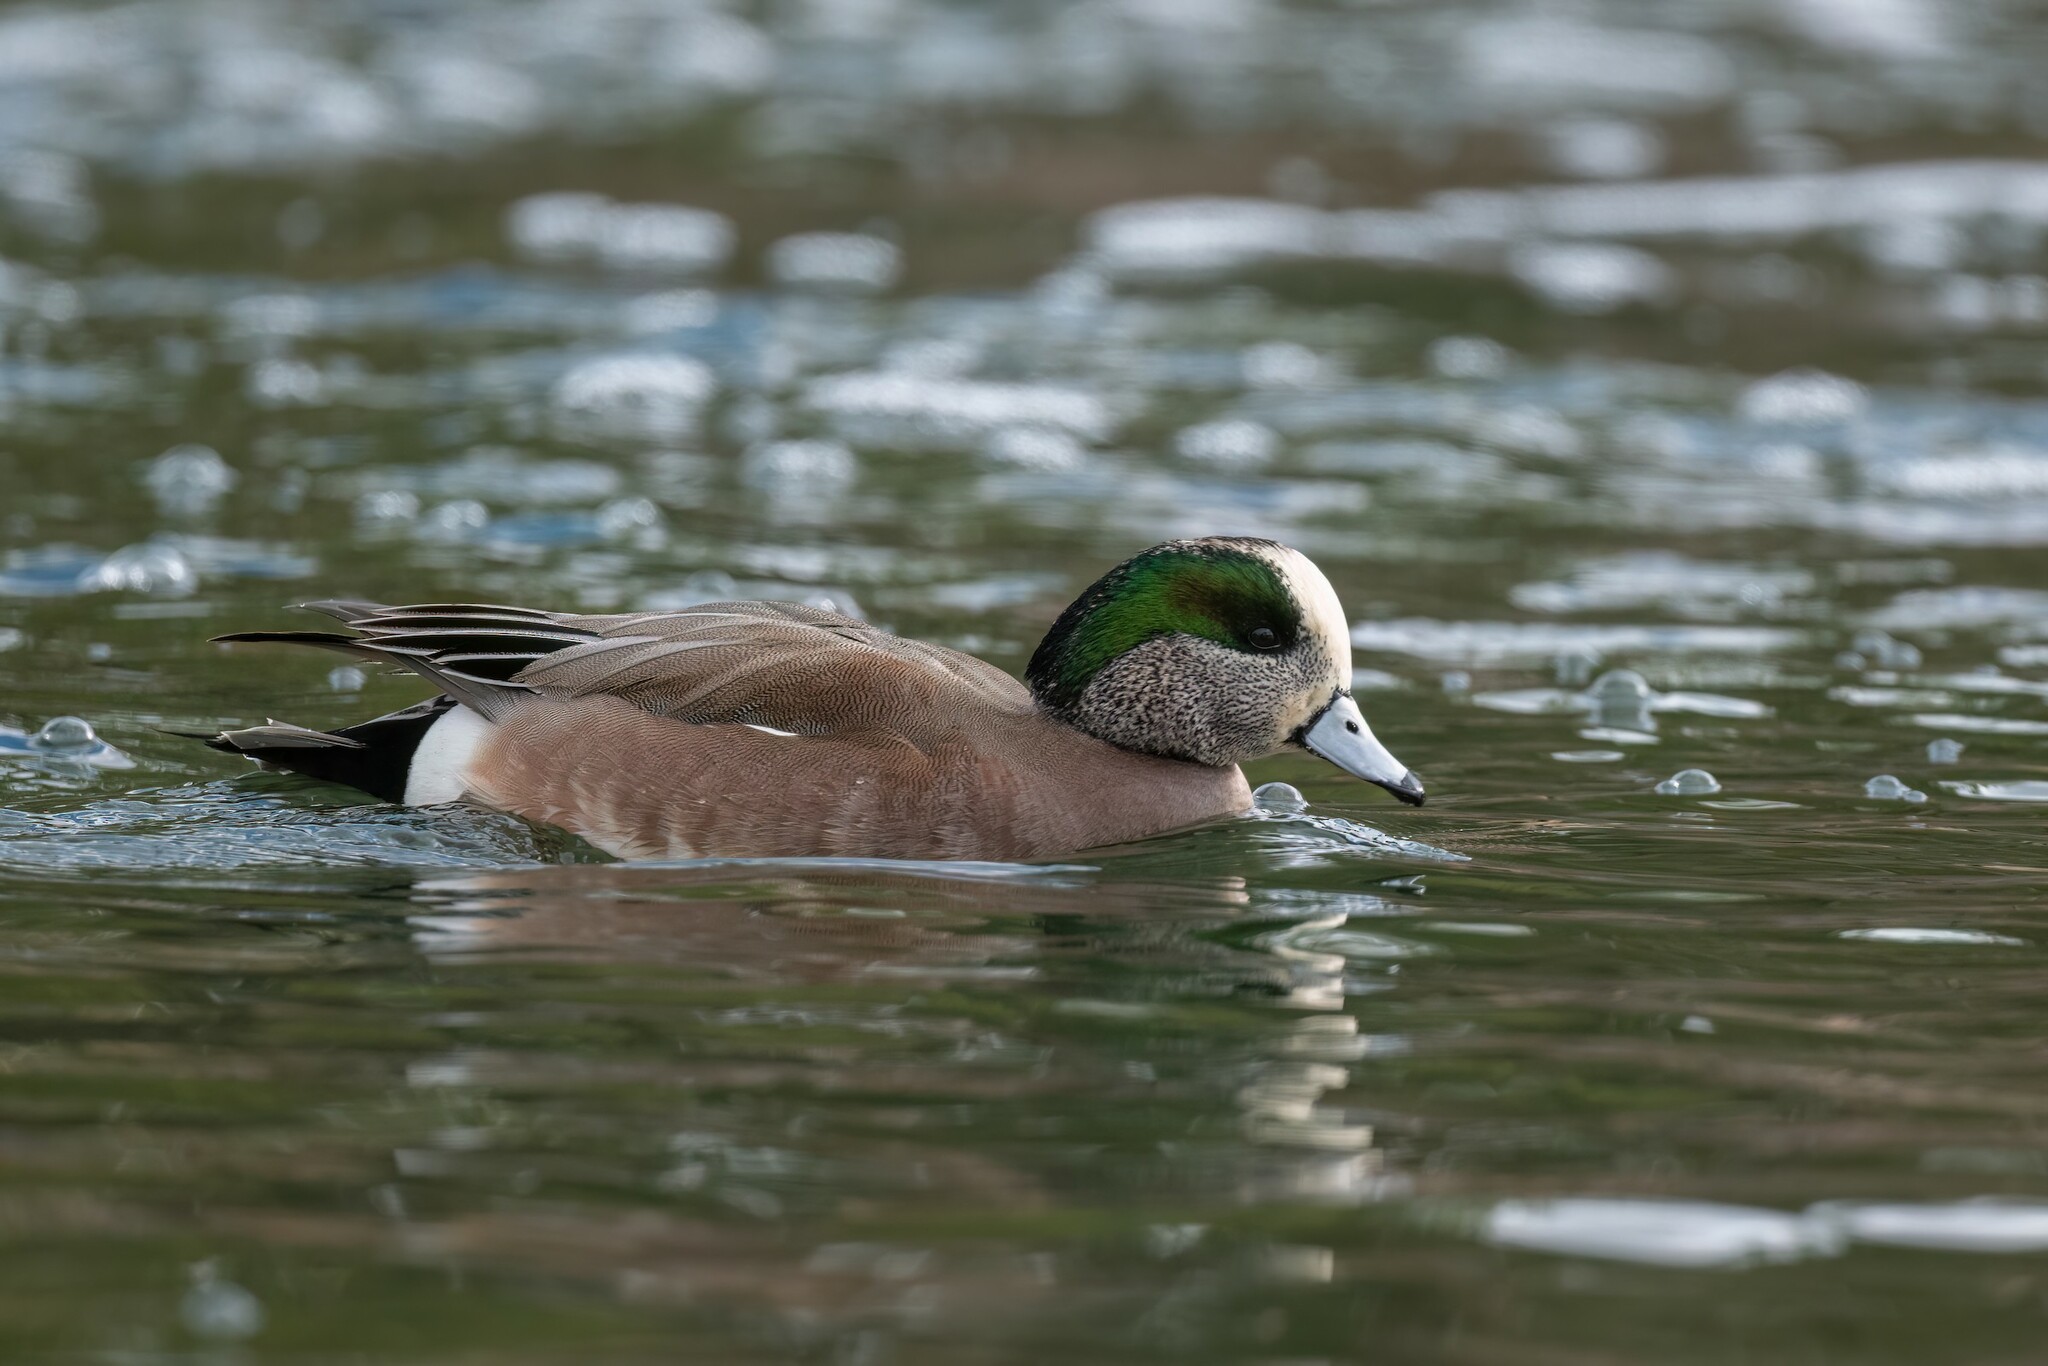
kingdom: Animalia
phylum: Chordata
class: Aves
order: Anseriformes
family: Anatidae
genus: Mareca
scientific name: Mareca americana
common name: American wigeon
